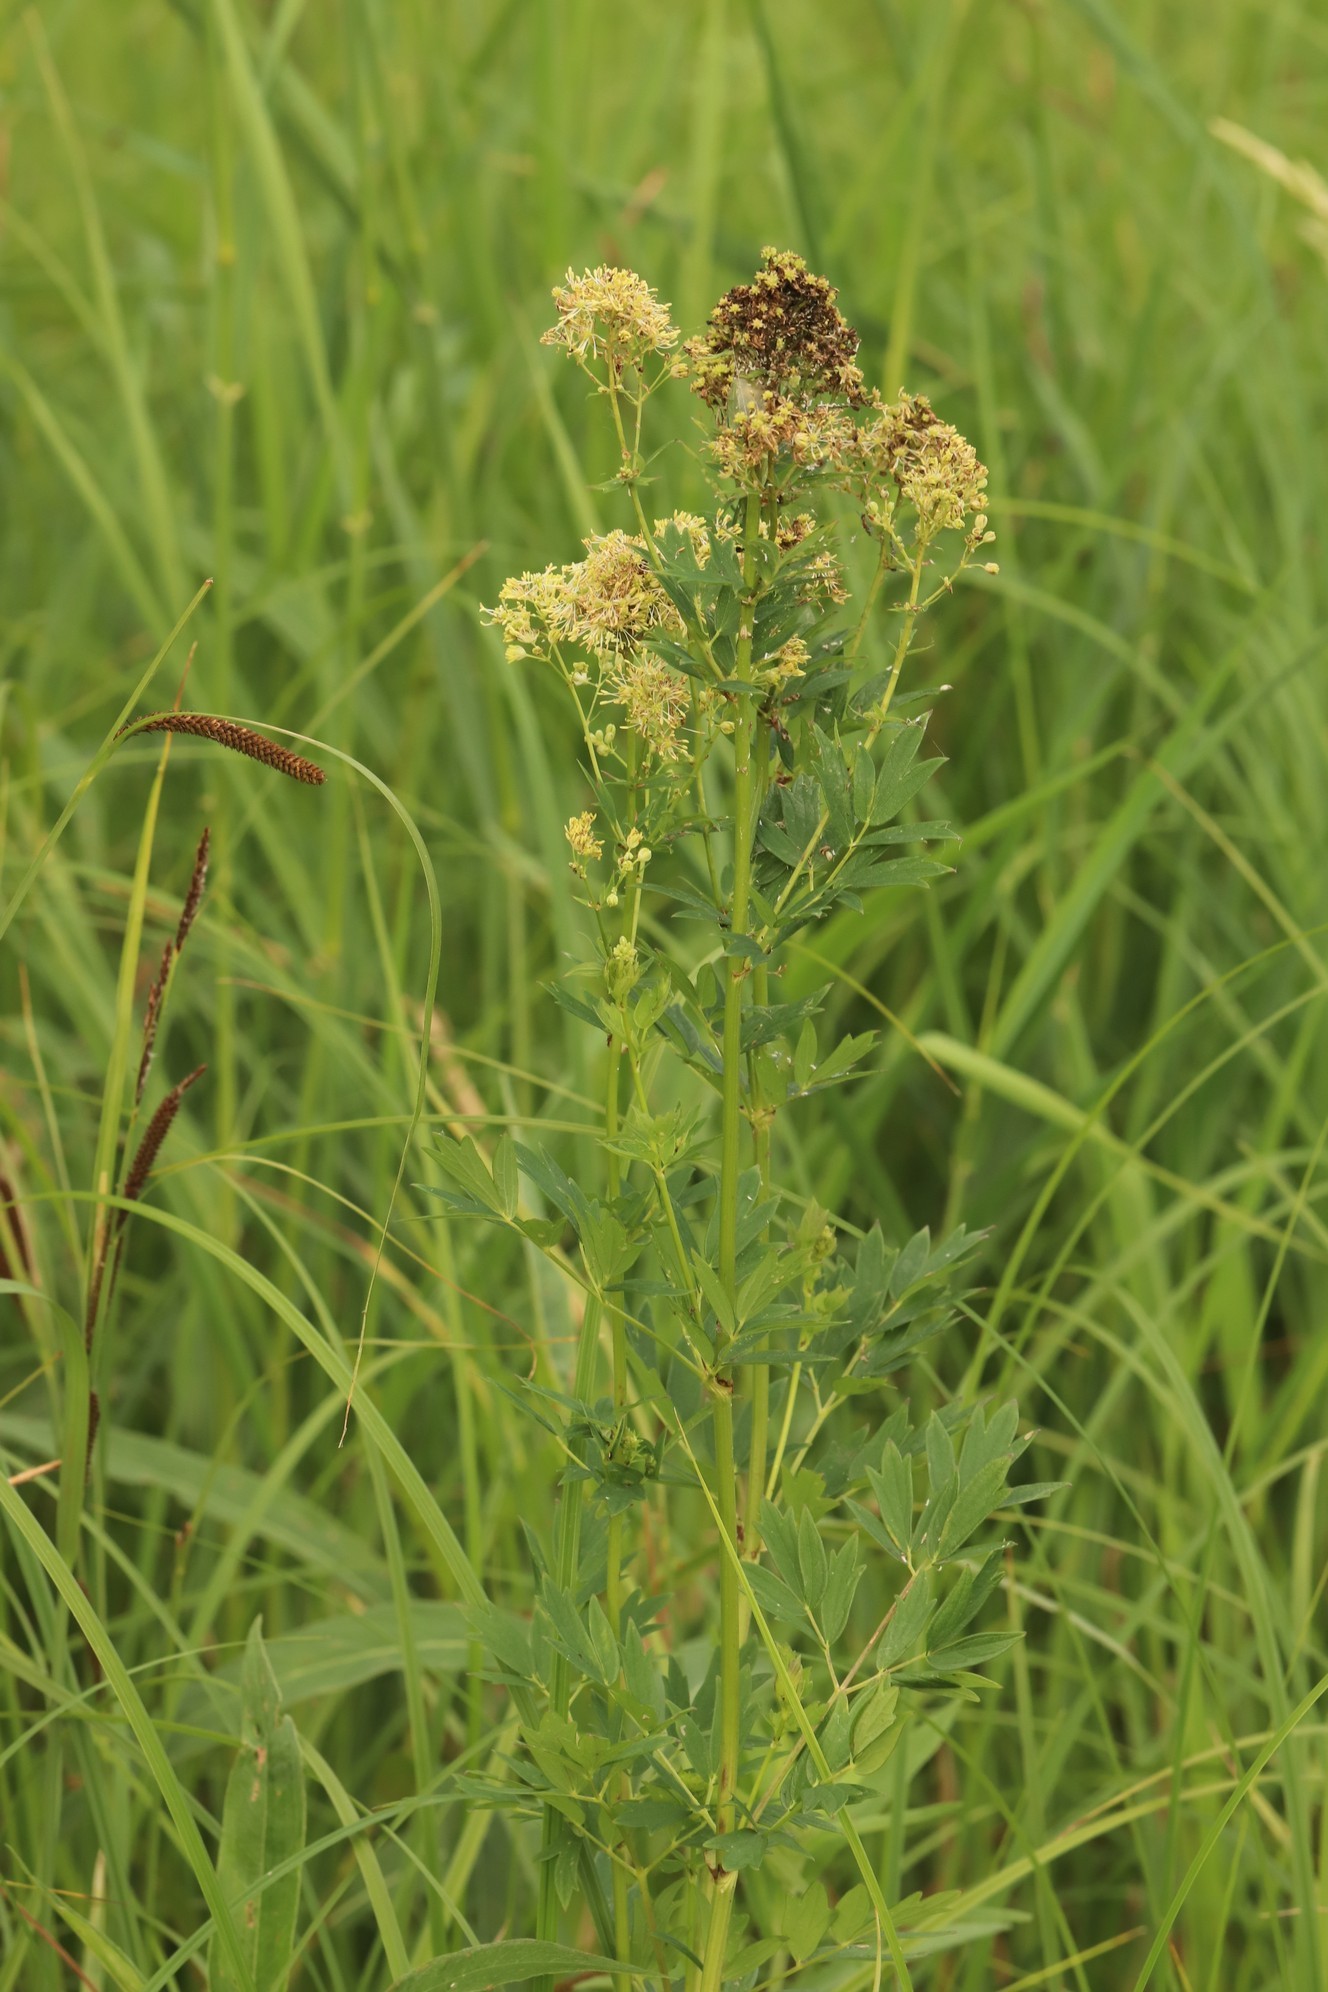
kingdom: Plantae
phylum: Tracheophyta
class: Magnoliopsida
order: Ranunculales
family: Ranunculaceae
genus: Thalictrum
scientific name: Thalictrum flavum
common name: Common meadow-rue
